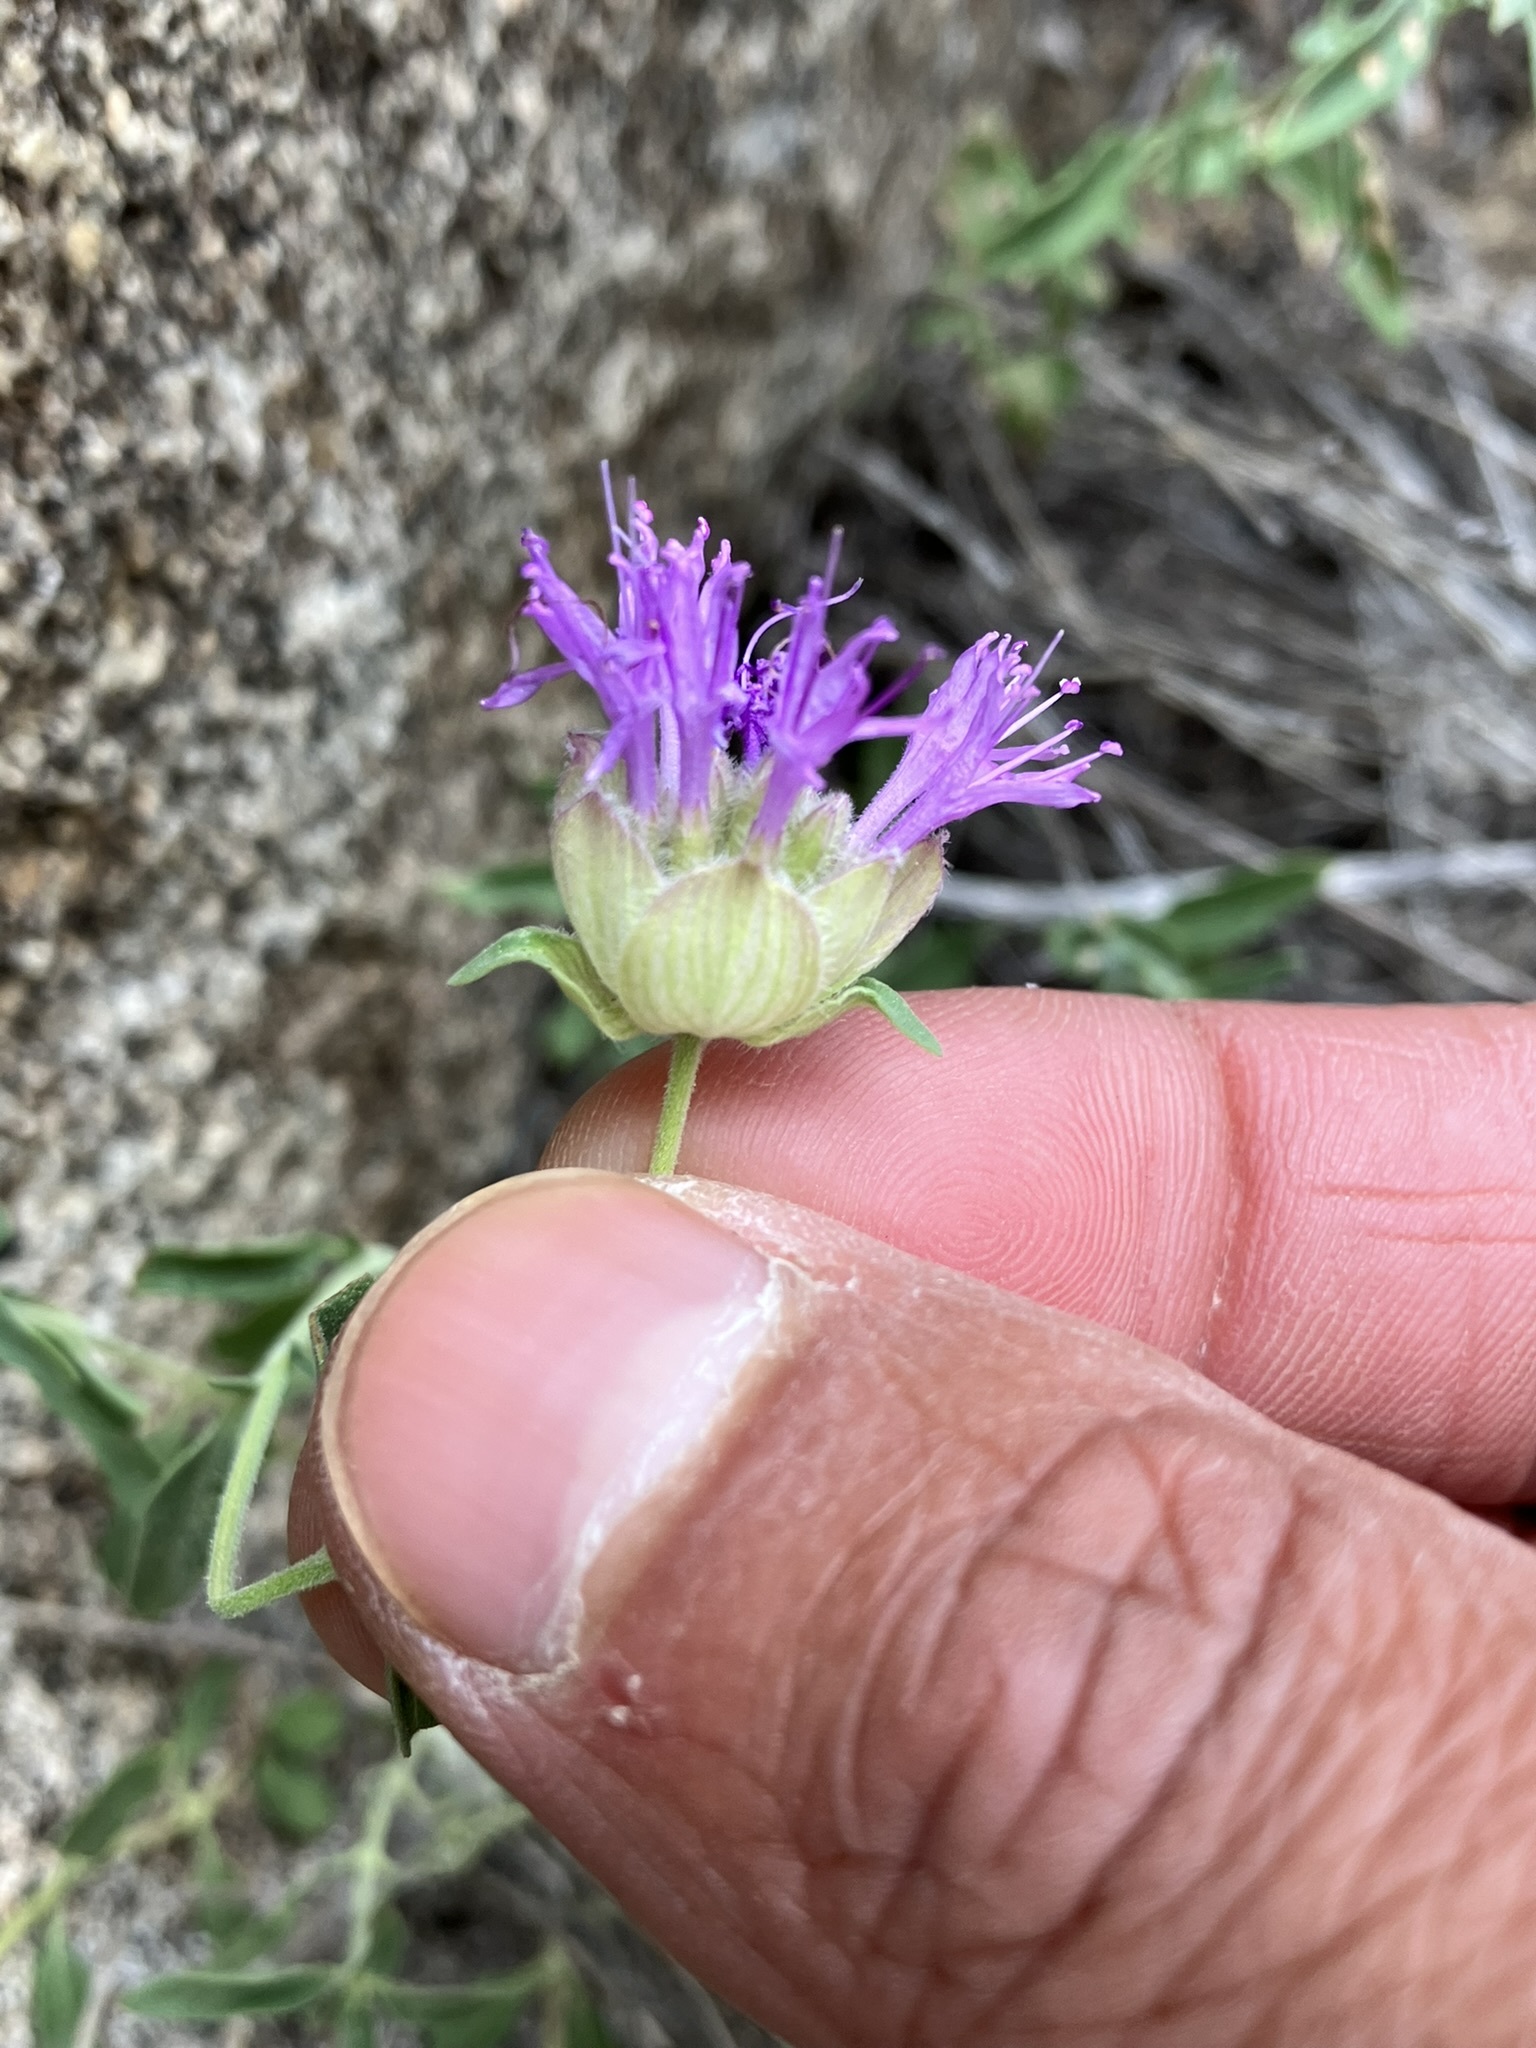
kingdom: Plantae
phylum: Tracheophyta
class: Magnoliopsida
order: Lamiales
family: Lamiaceae
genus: Monardella
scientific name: Monardella odoratissima
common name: Pacific monardella
